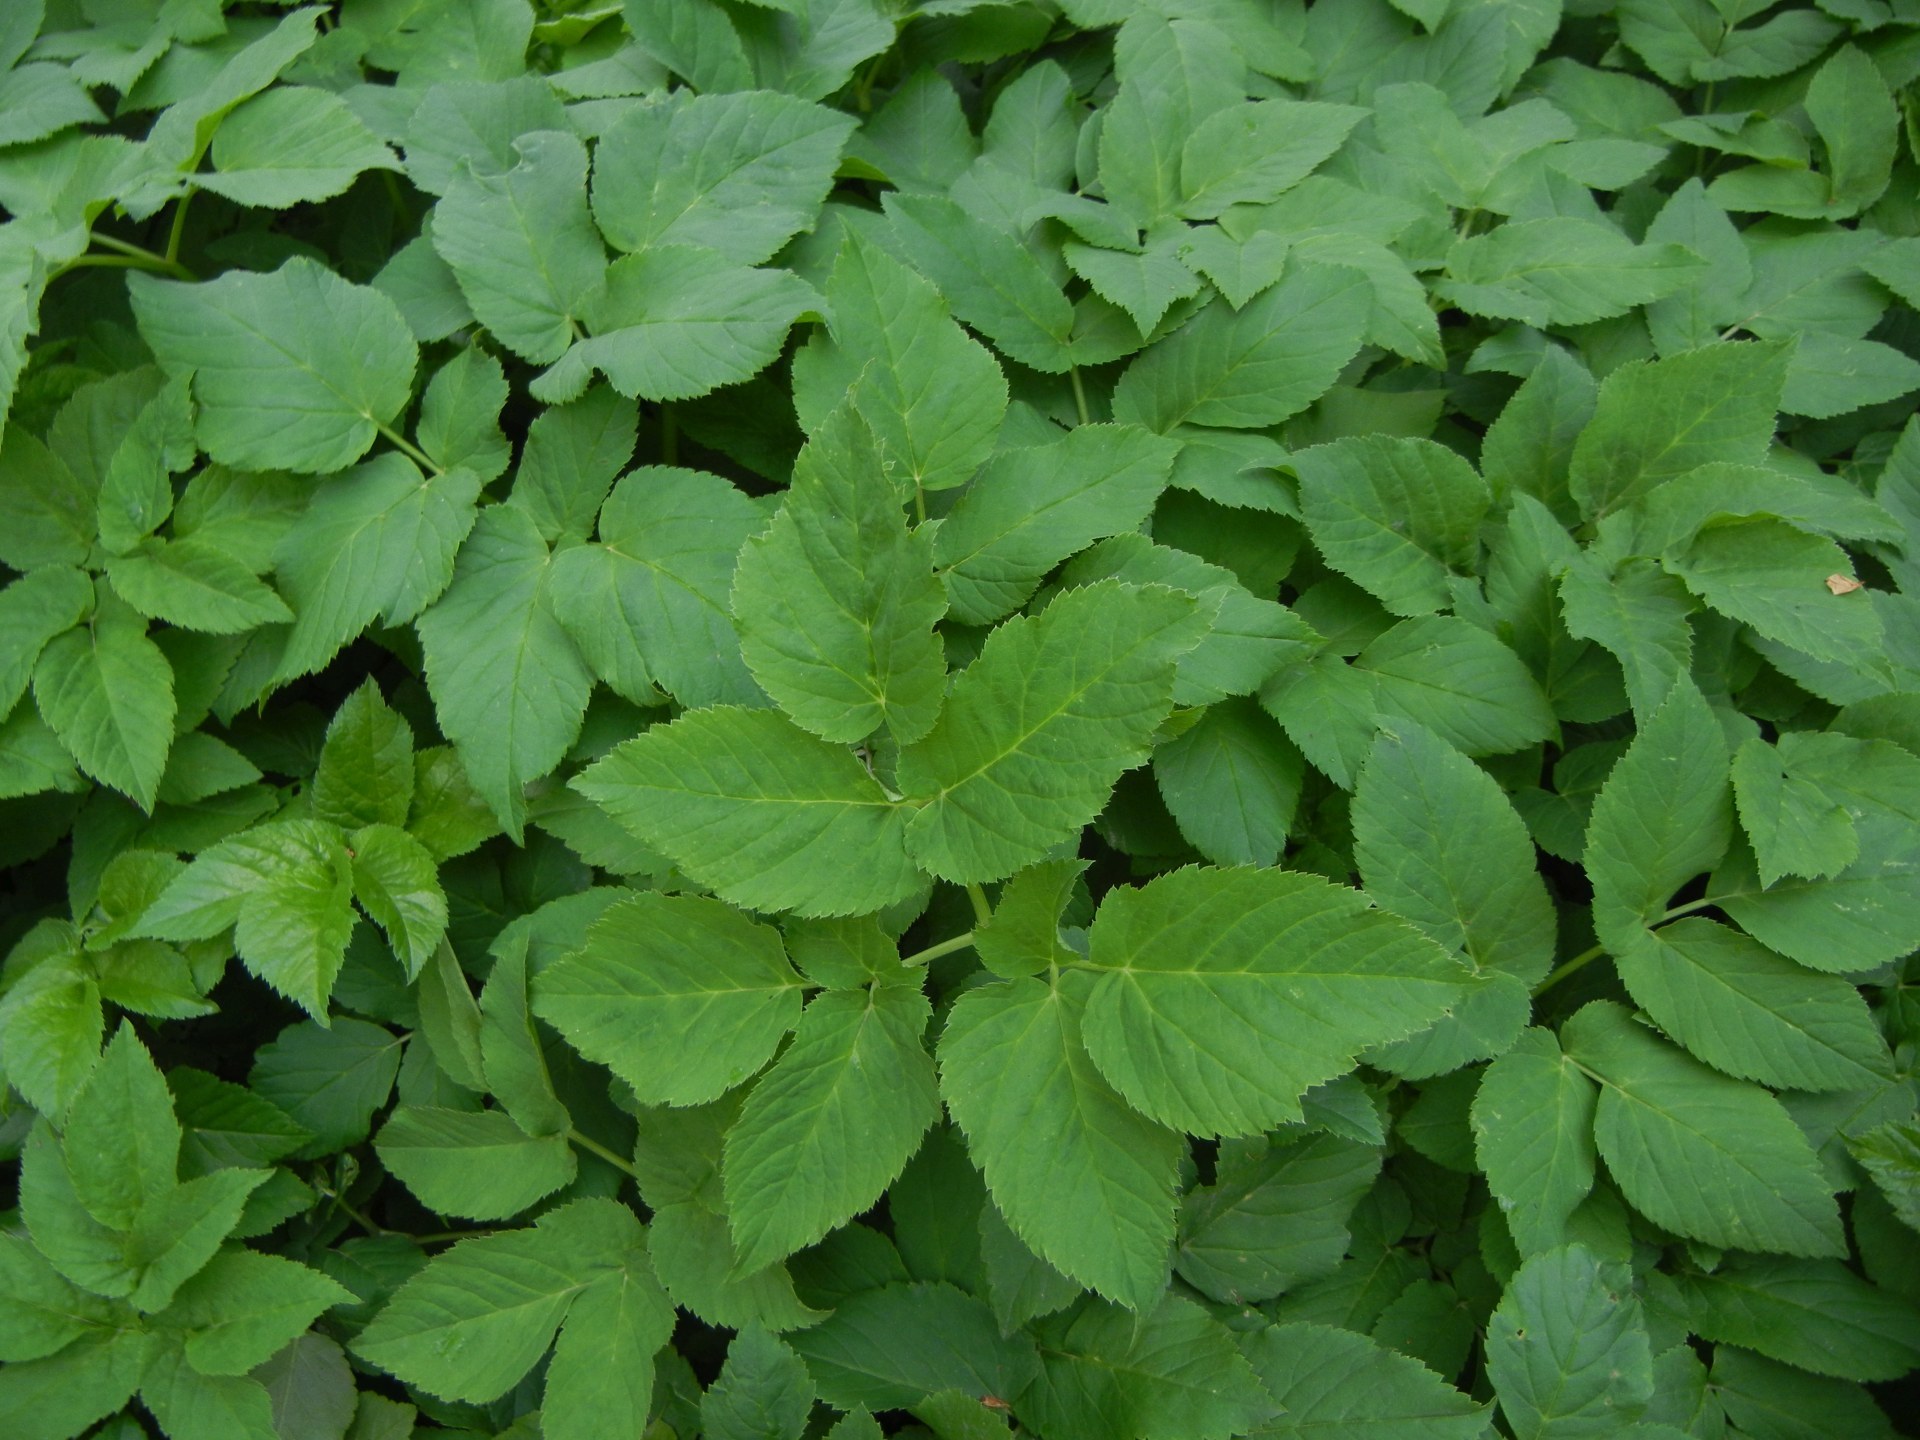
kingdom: Plantae
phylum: Tracheophyta
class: Magnoliopsida
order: Apiales
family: Apiaceae
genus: Aegopodium
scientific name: Aegopodium podagraria
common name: Ground-elder
